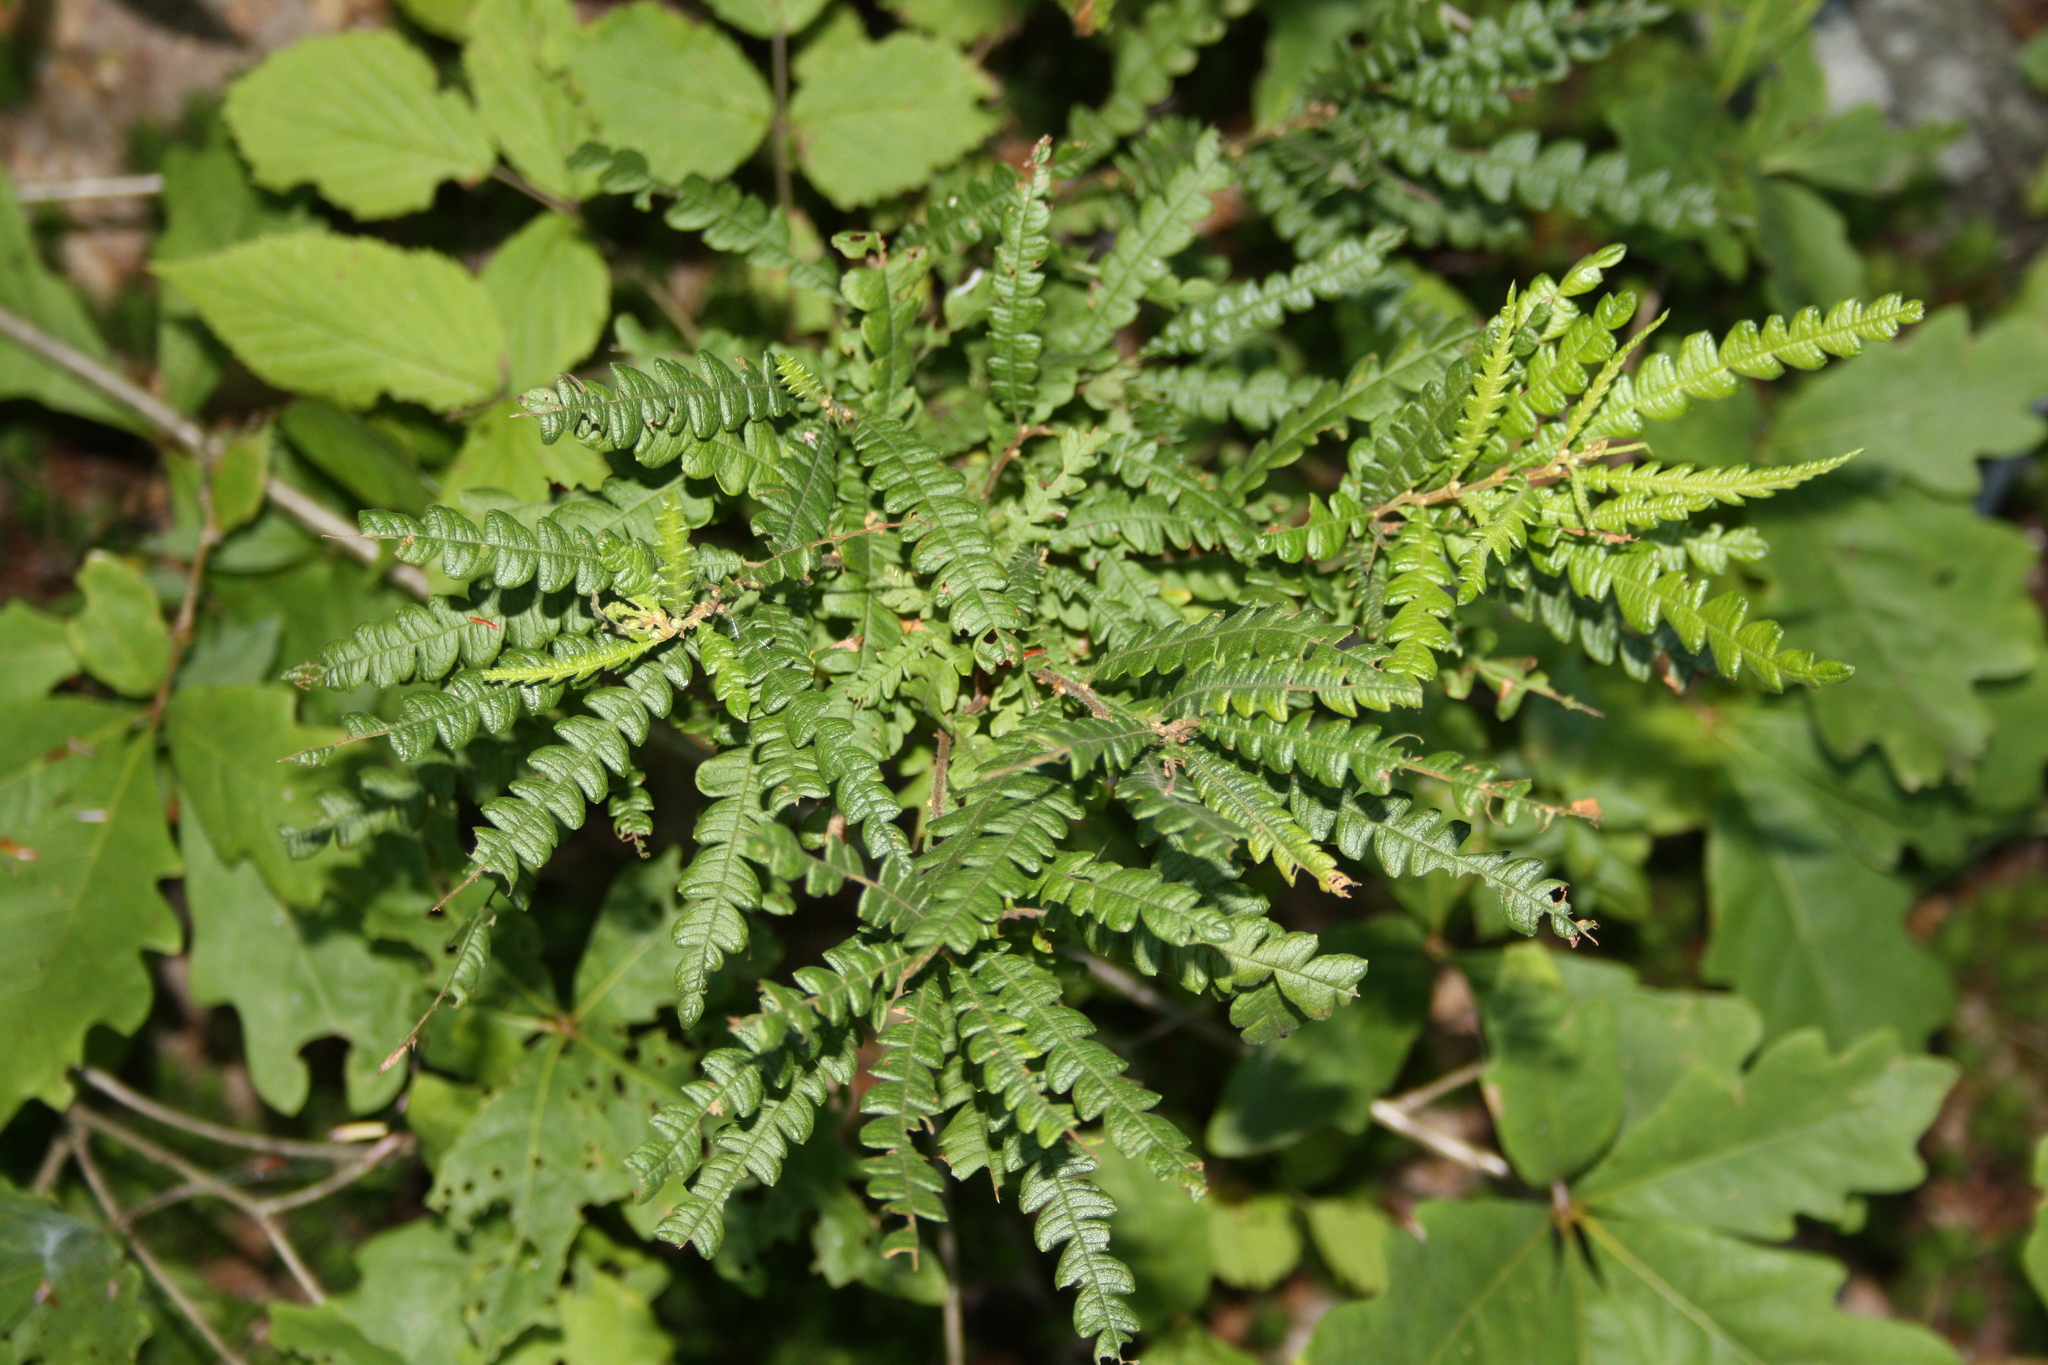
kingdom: Plantae
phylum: Tracheophyta
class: Magnoliopsida
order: Fagales
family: Myricaceae
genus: Comptonia
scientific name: Comptonia peregrina
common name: Sweet-fern
